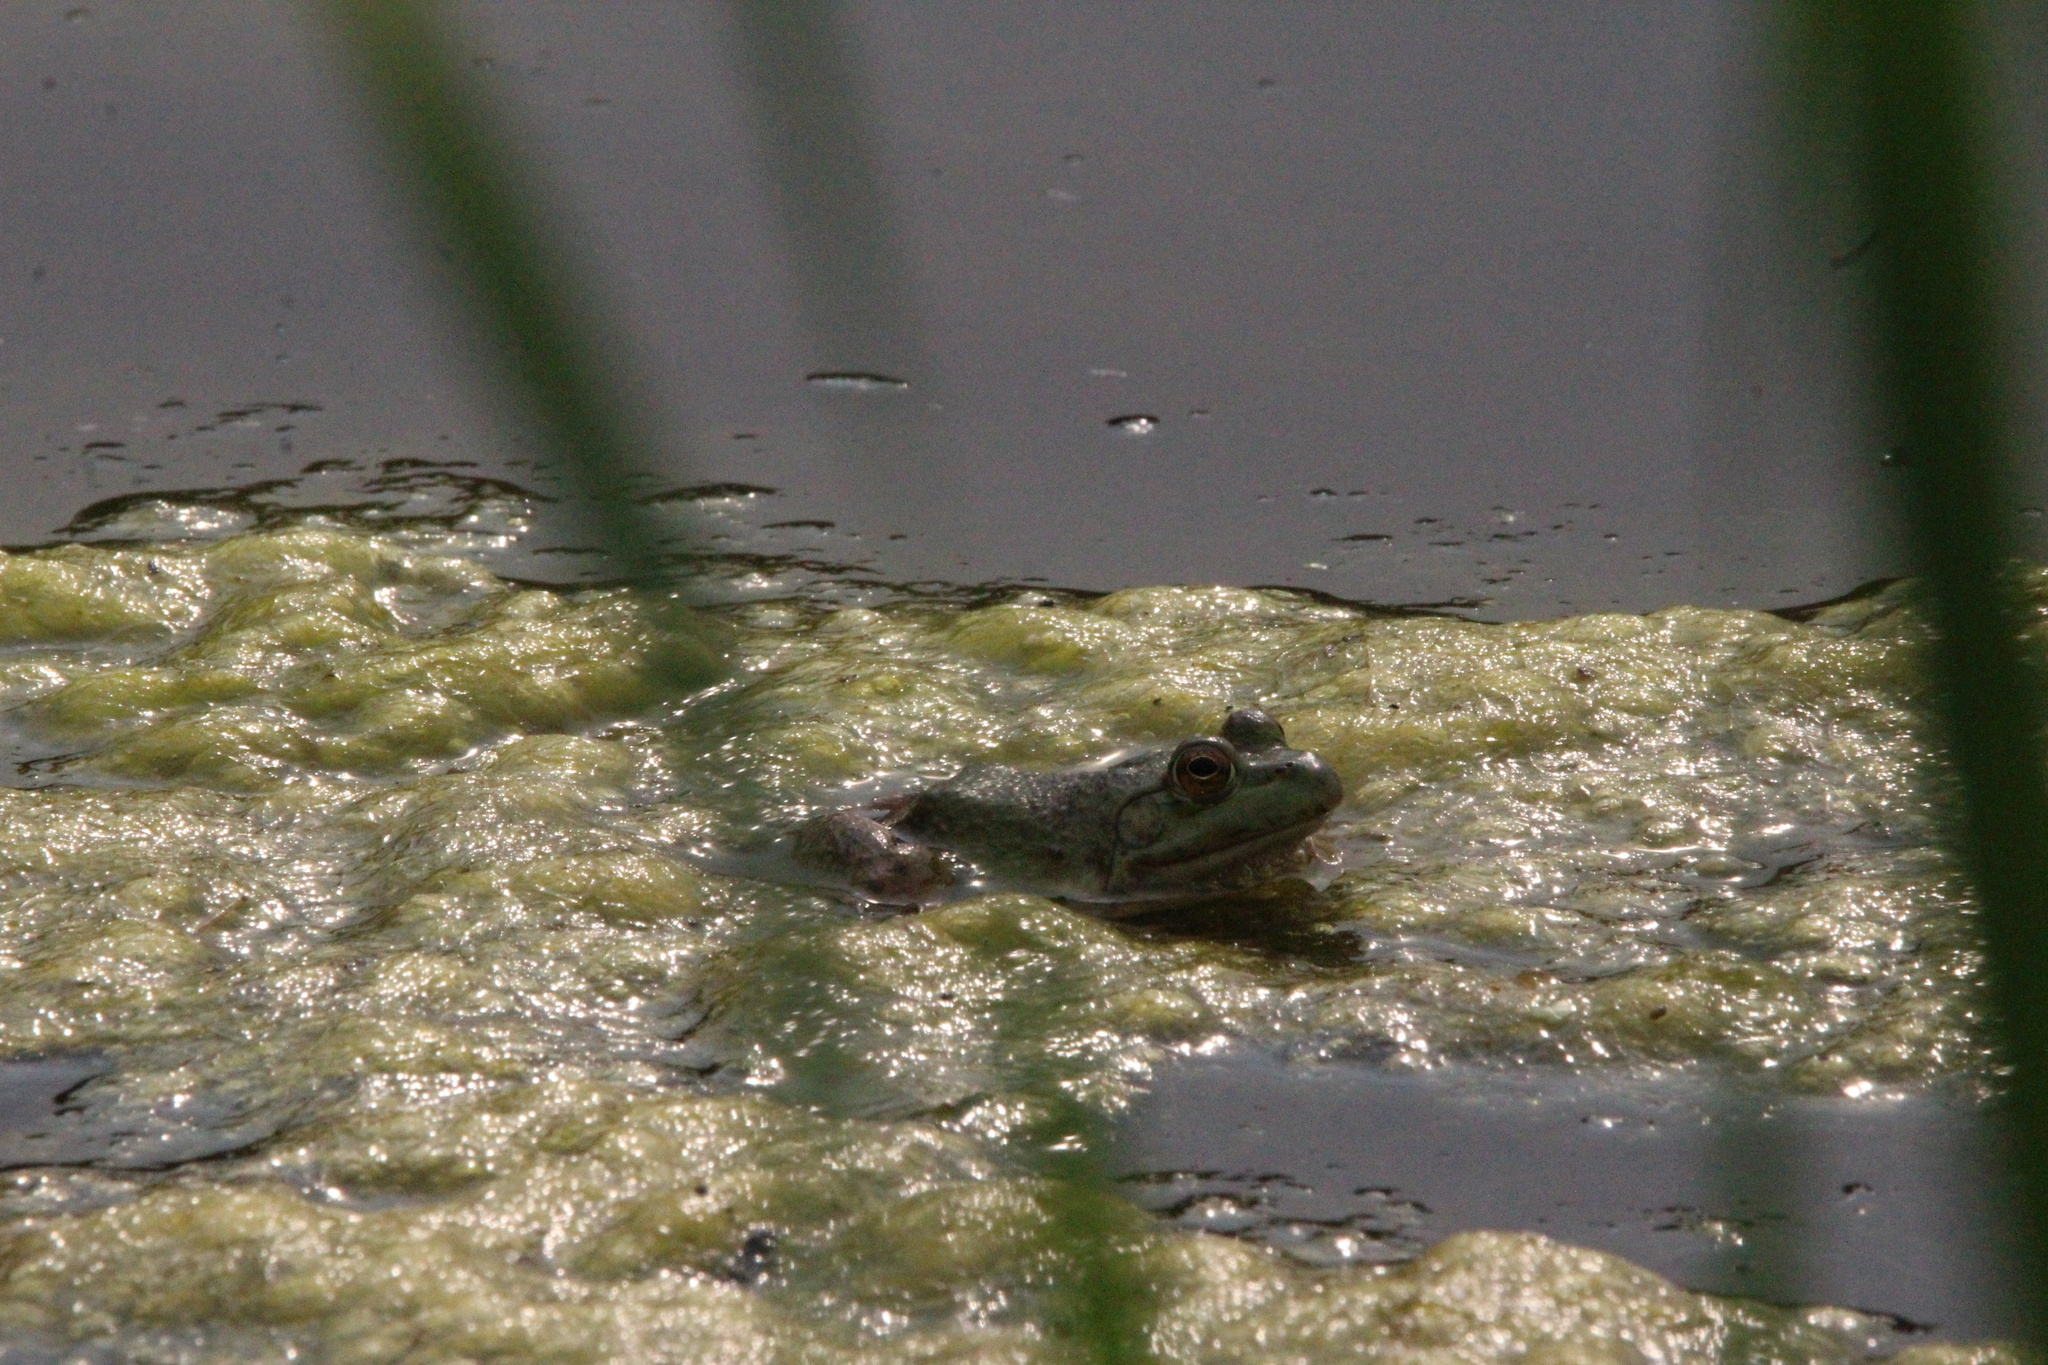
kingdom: Animalia
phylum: Chordata
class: Amphibia
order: Anura
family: Ranidae
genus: Lithobates
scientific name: Lithobates catesbeianus
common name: American bullfrog
